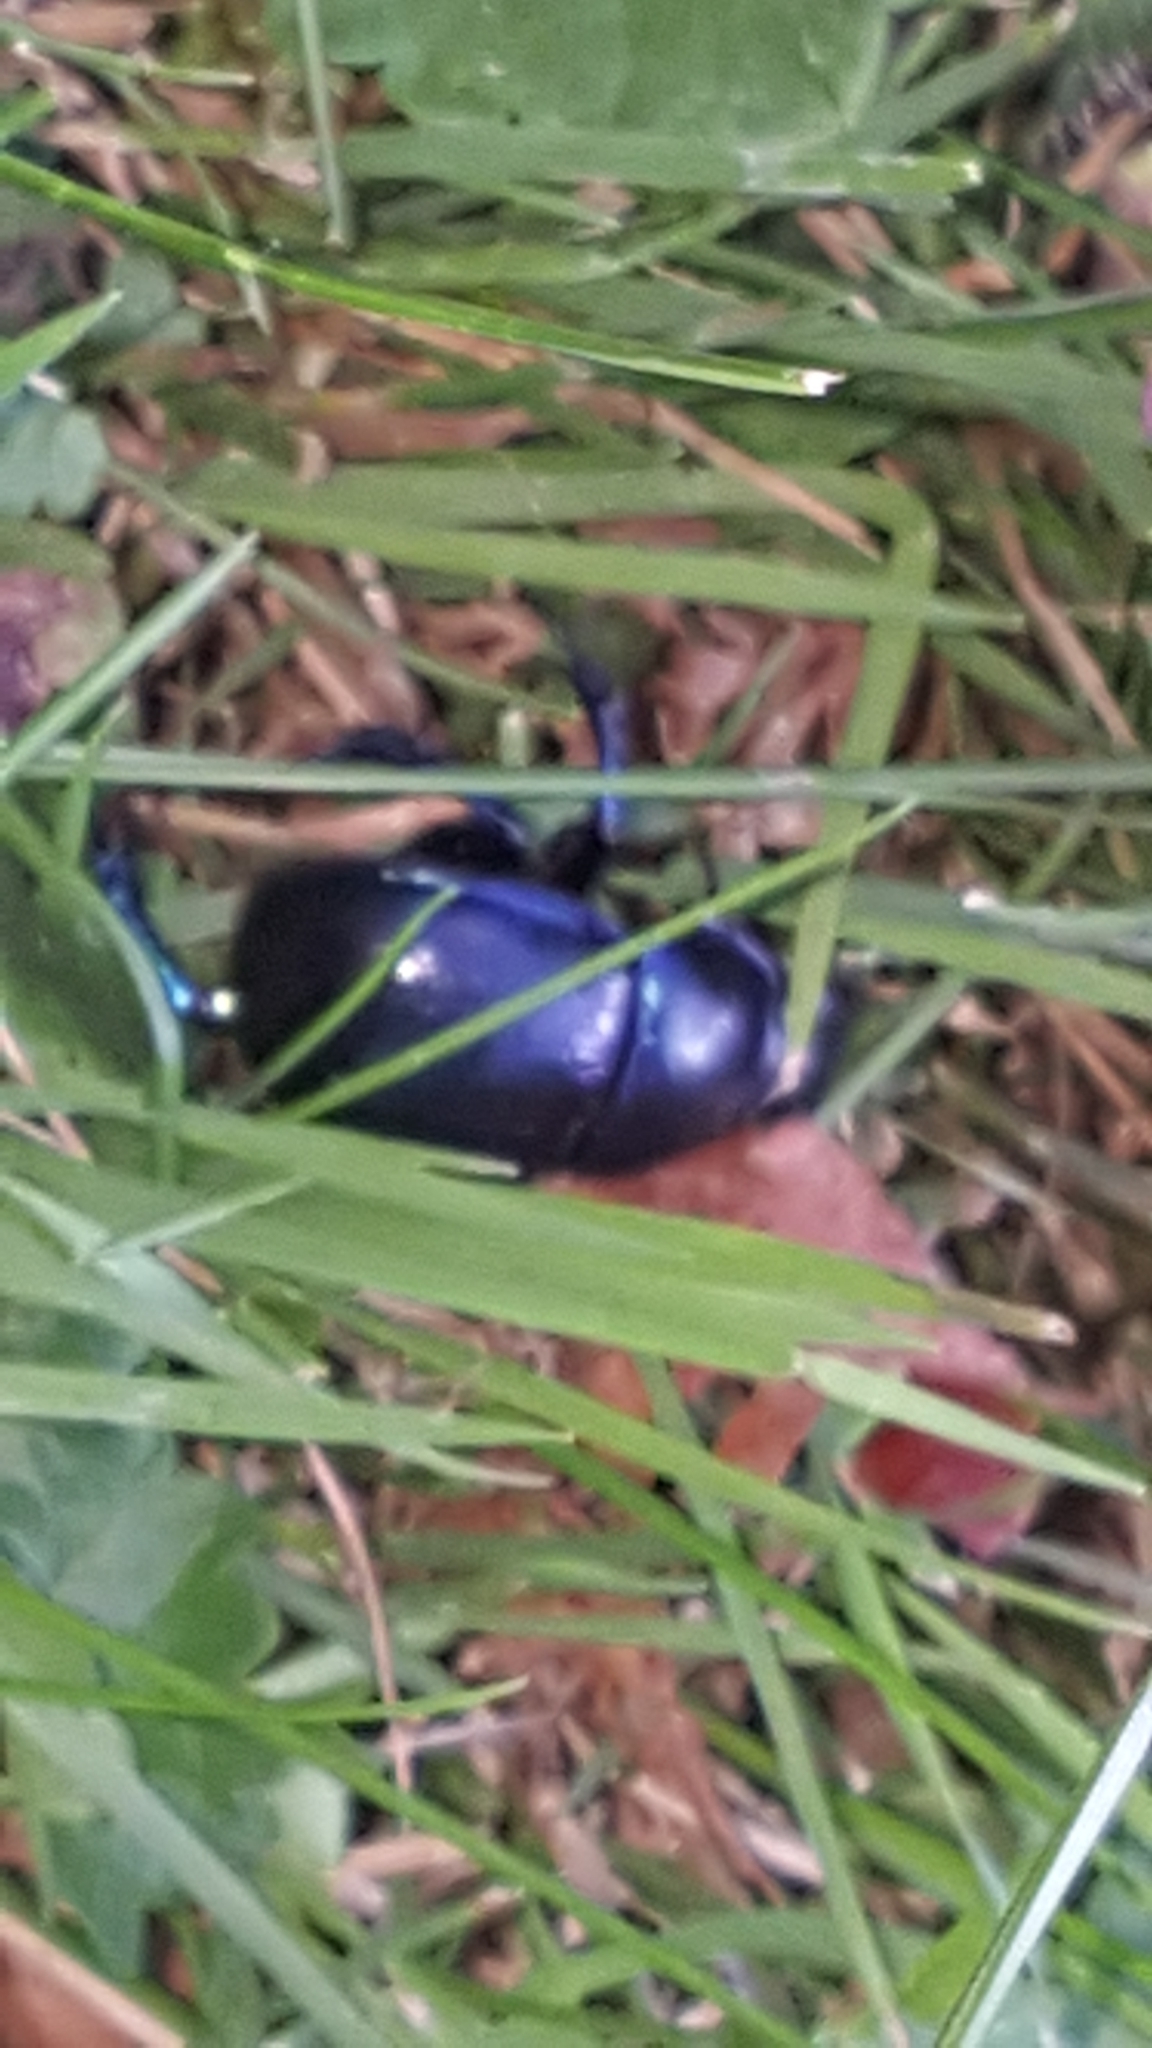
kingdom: Animalia
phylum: Arthropoda
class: Insecta
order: Coleoptera
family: Geotrupidae
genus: Anoplotrupes
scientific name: Anoplotrupes stercorosus
